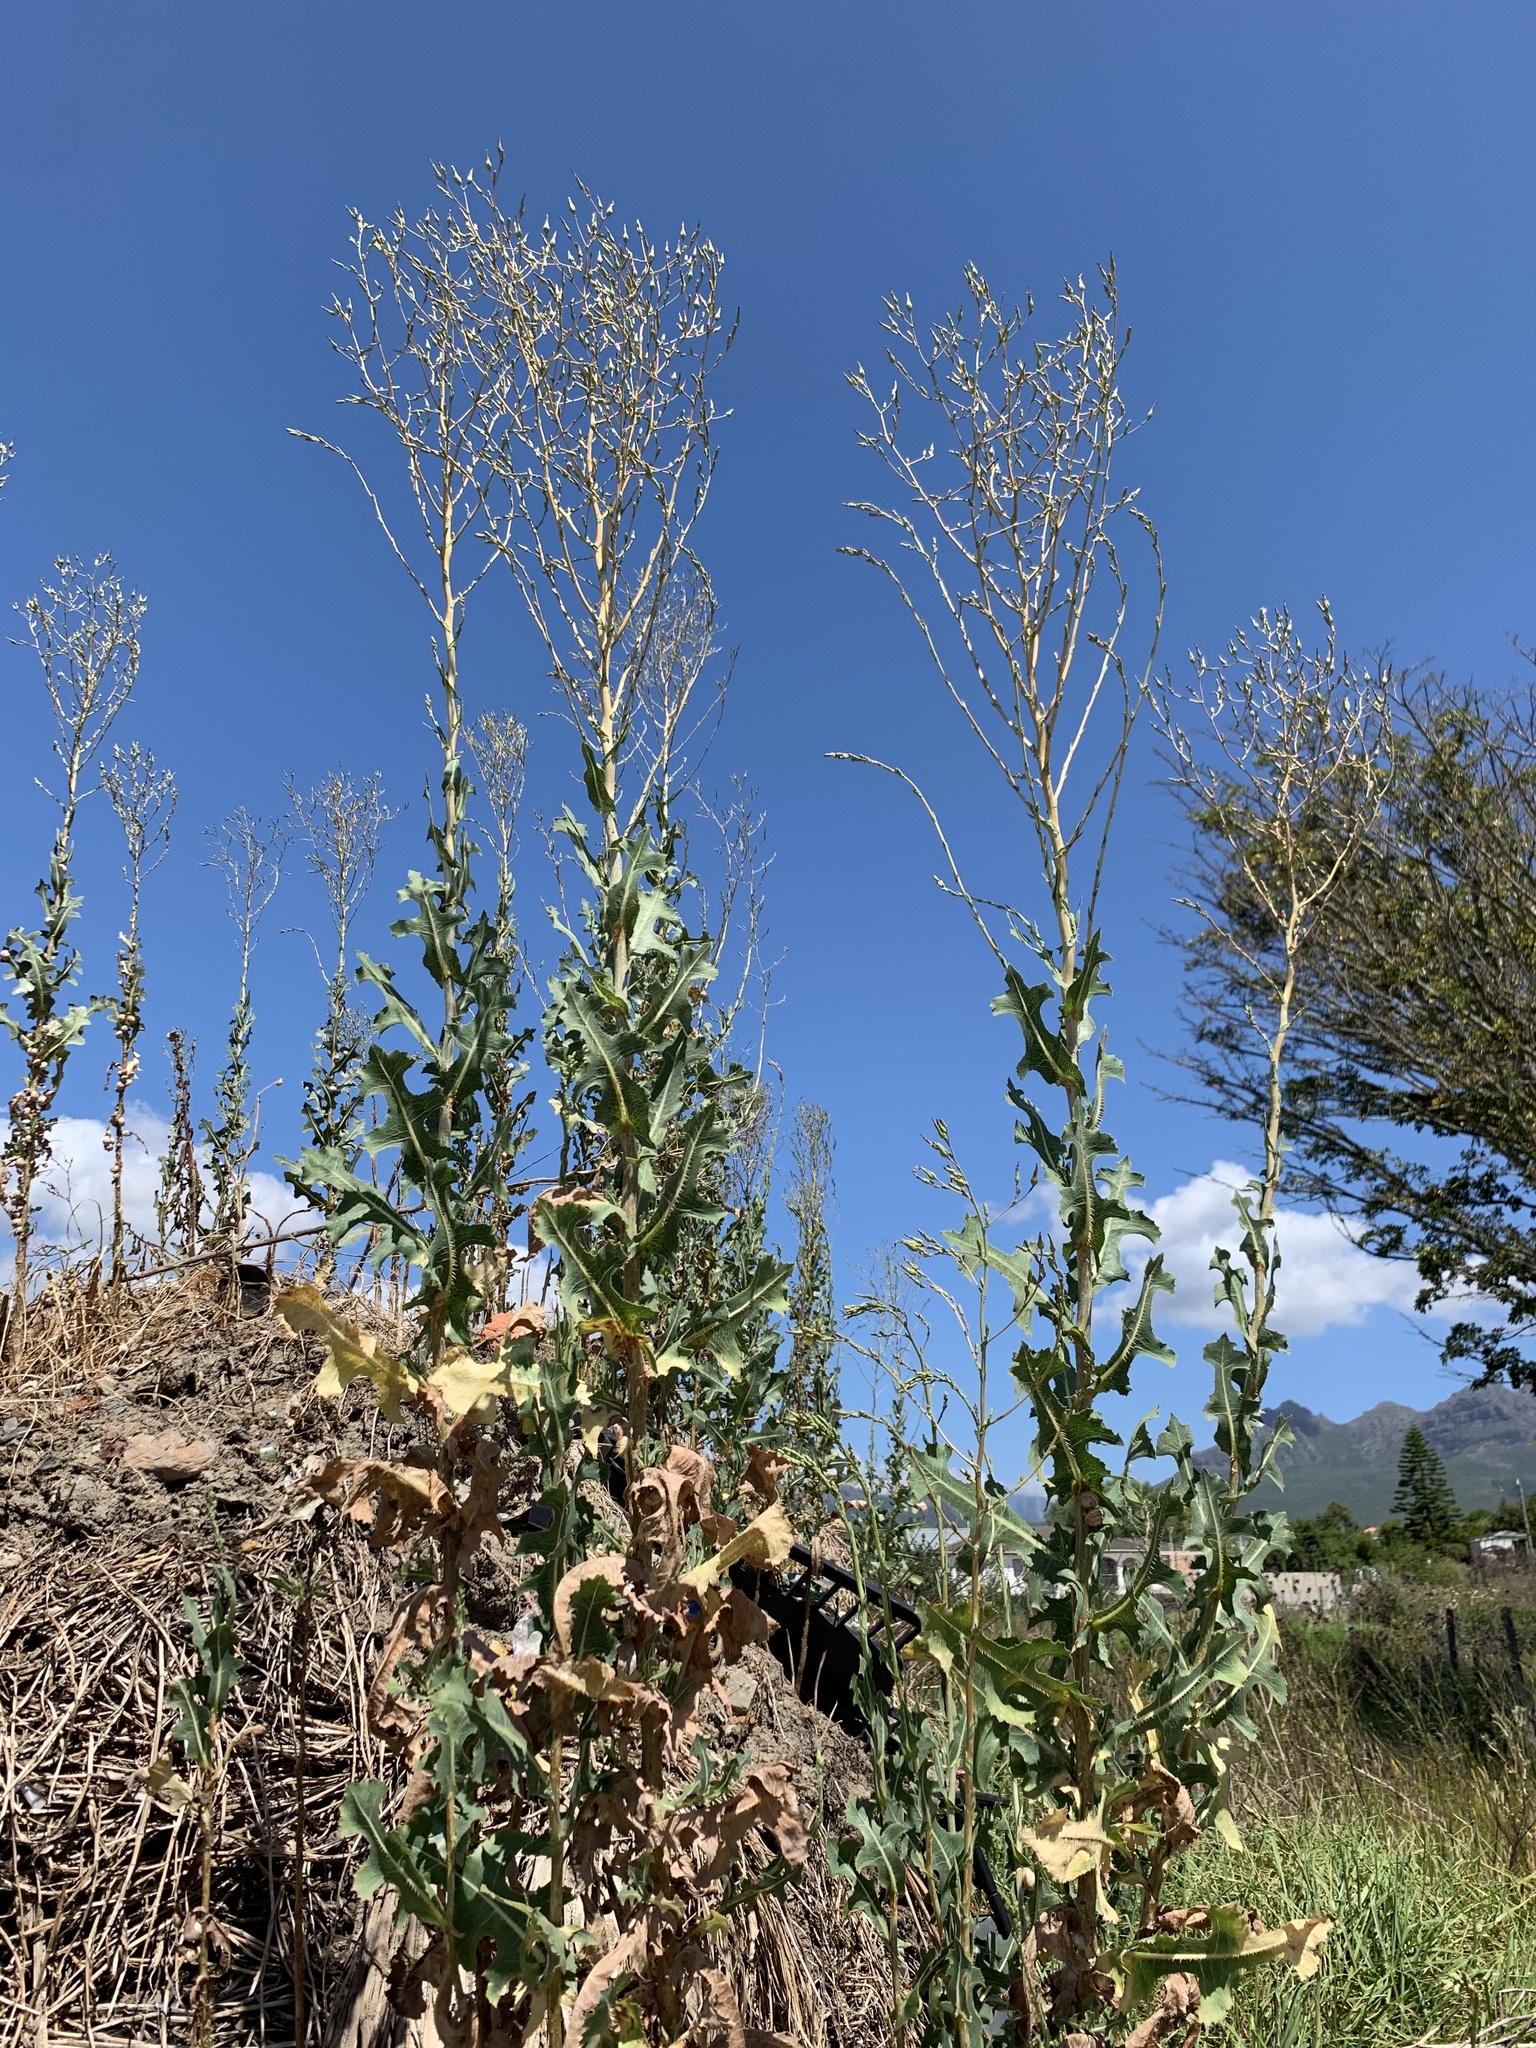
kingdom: Plantae
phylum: Tracheophyta
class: Magnoliopsida
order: Asterales
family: Asteraceae
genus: Lactuca
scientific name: Lactuca serriola
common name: Prickly lettuce
